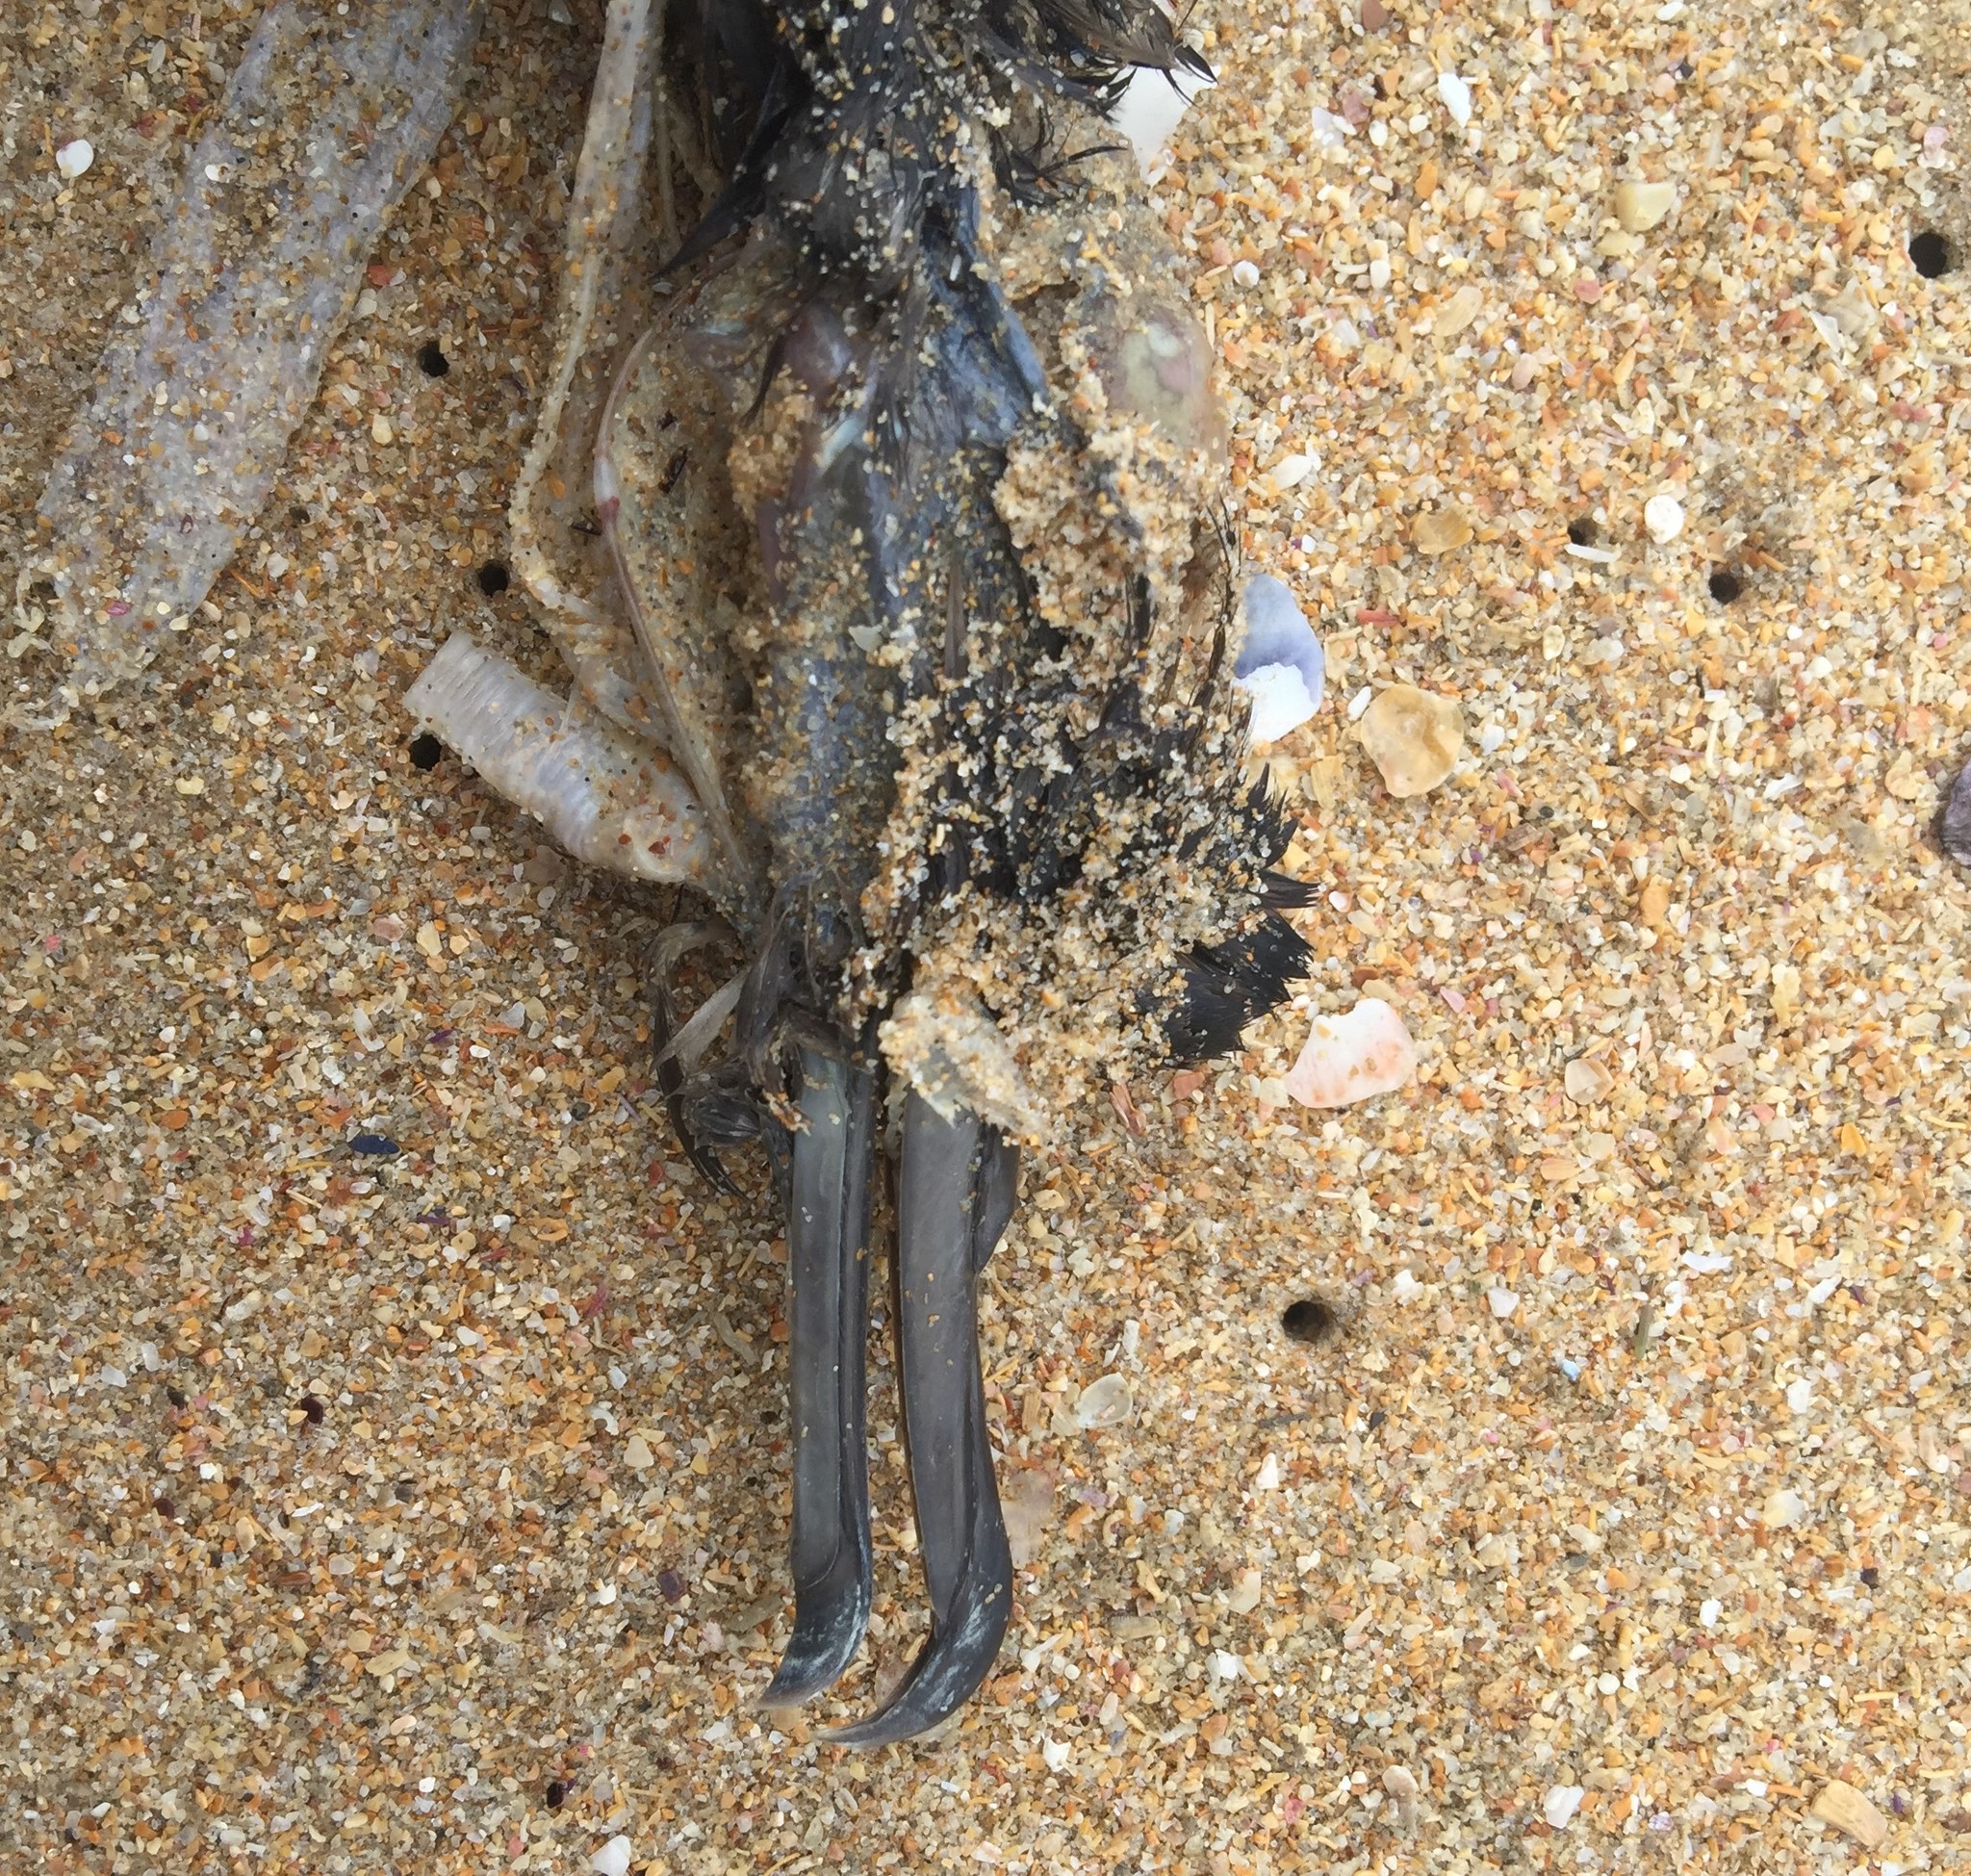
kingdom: Animalia
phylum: Chordata
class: Aves
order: Suliformes
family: Phalacrocoracidae
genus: Phalacrocorax
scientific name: Phalacrocorax capensis
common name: Cape cormorant
